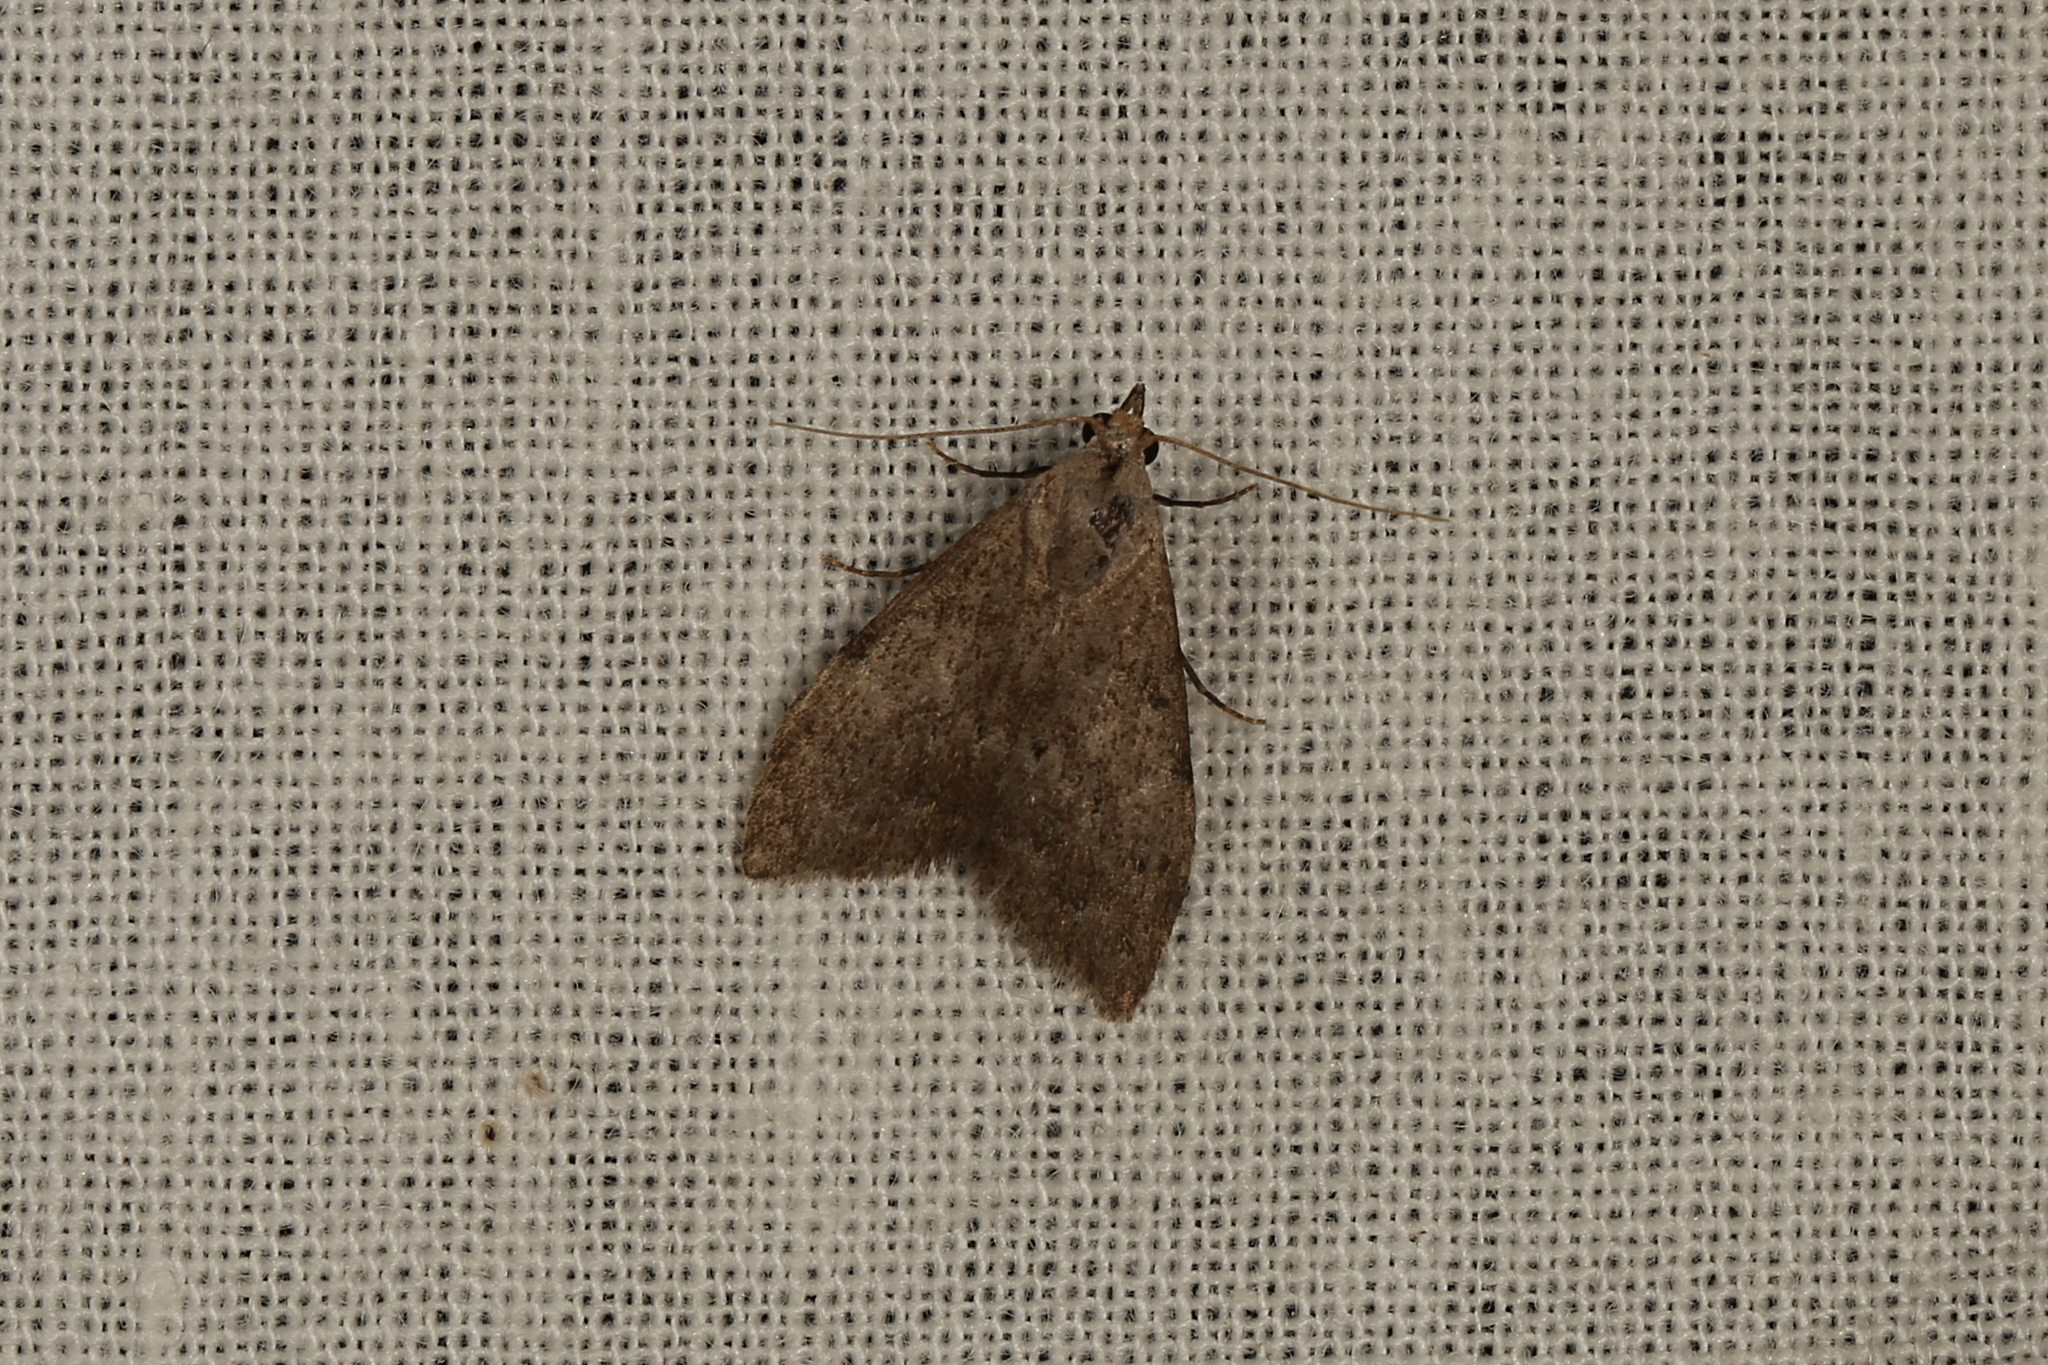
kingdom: Animalia
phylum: Arthropoda
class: Insecta
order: Lepidoptera
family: Nolidae
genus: Nola
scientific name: Nola pleurosema
